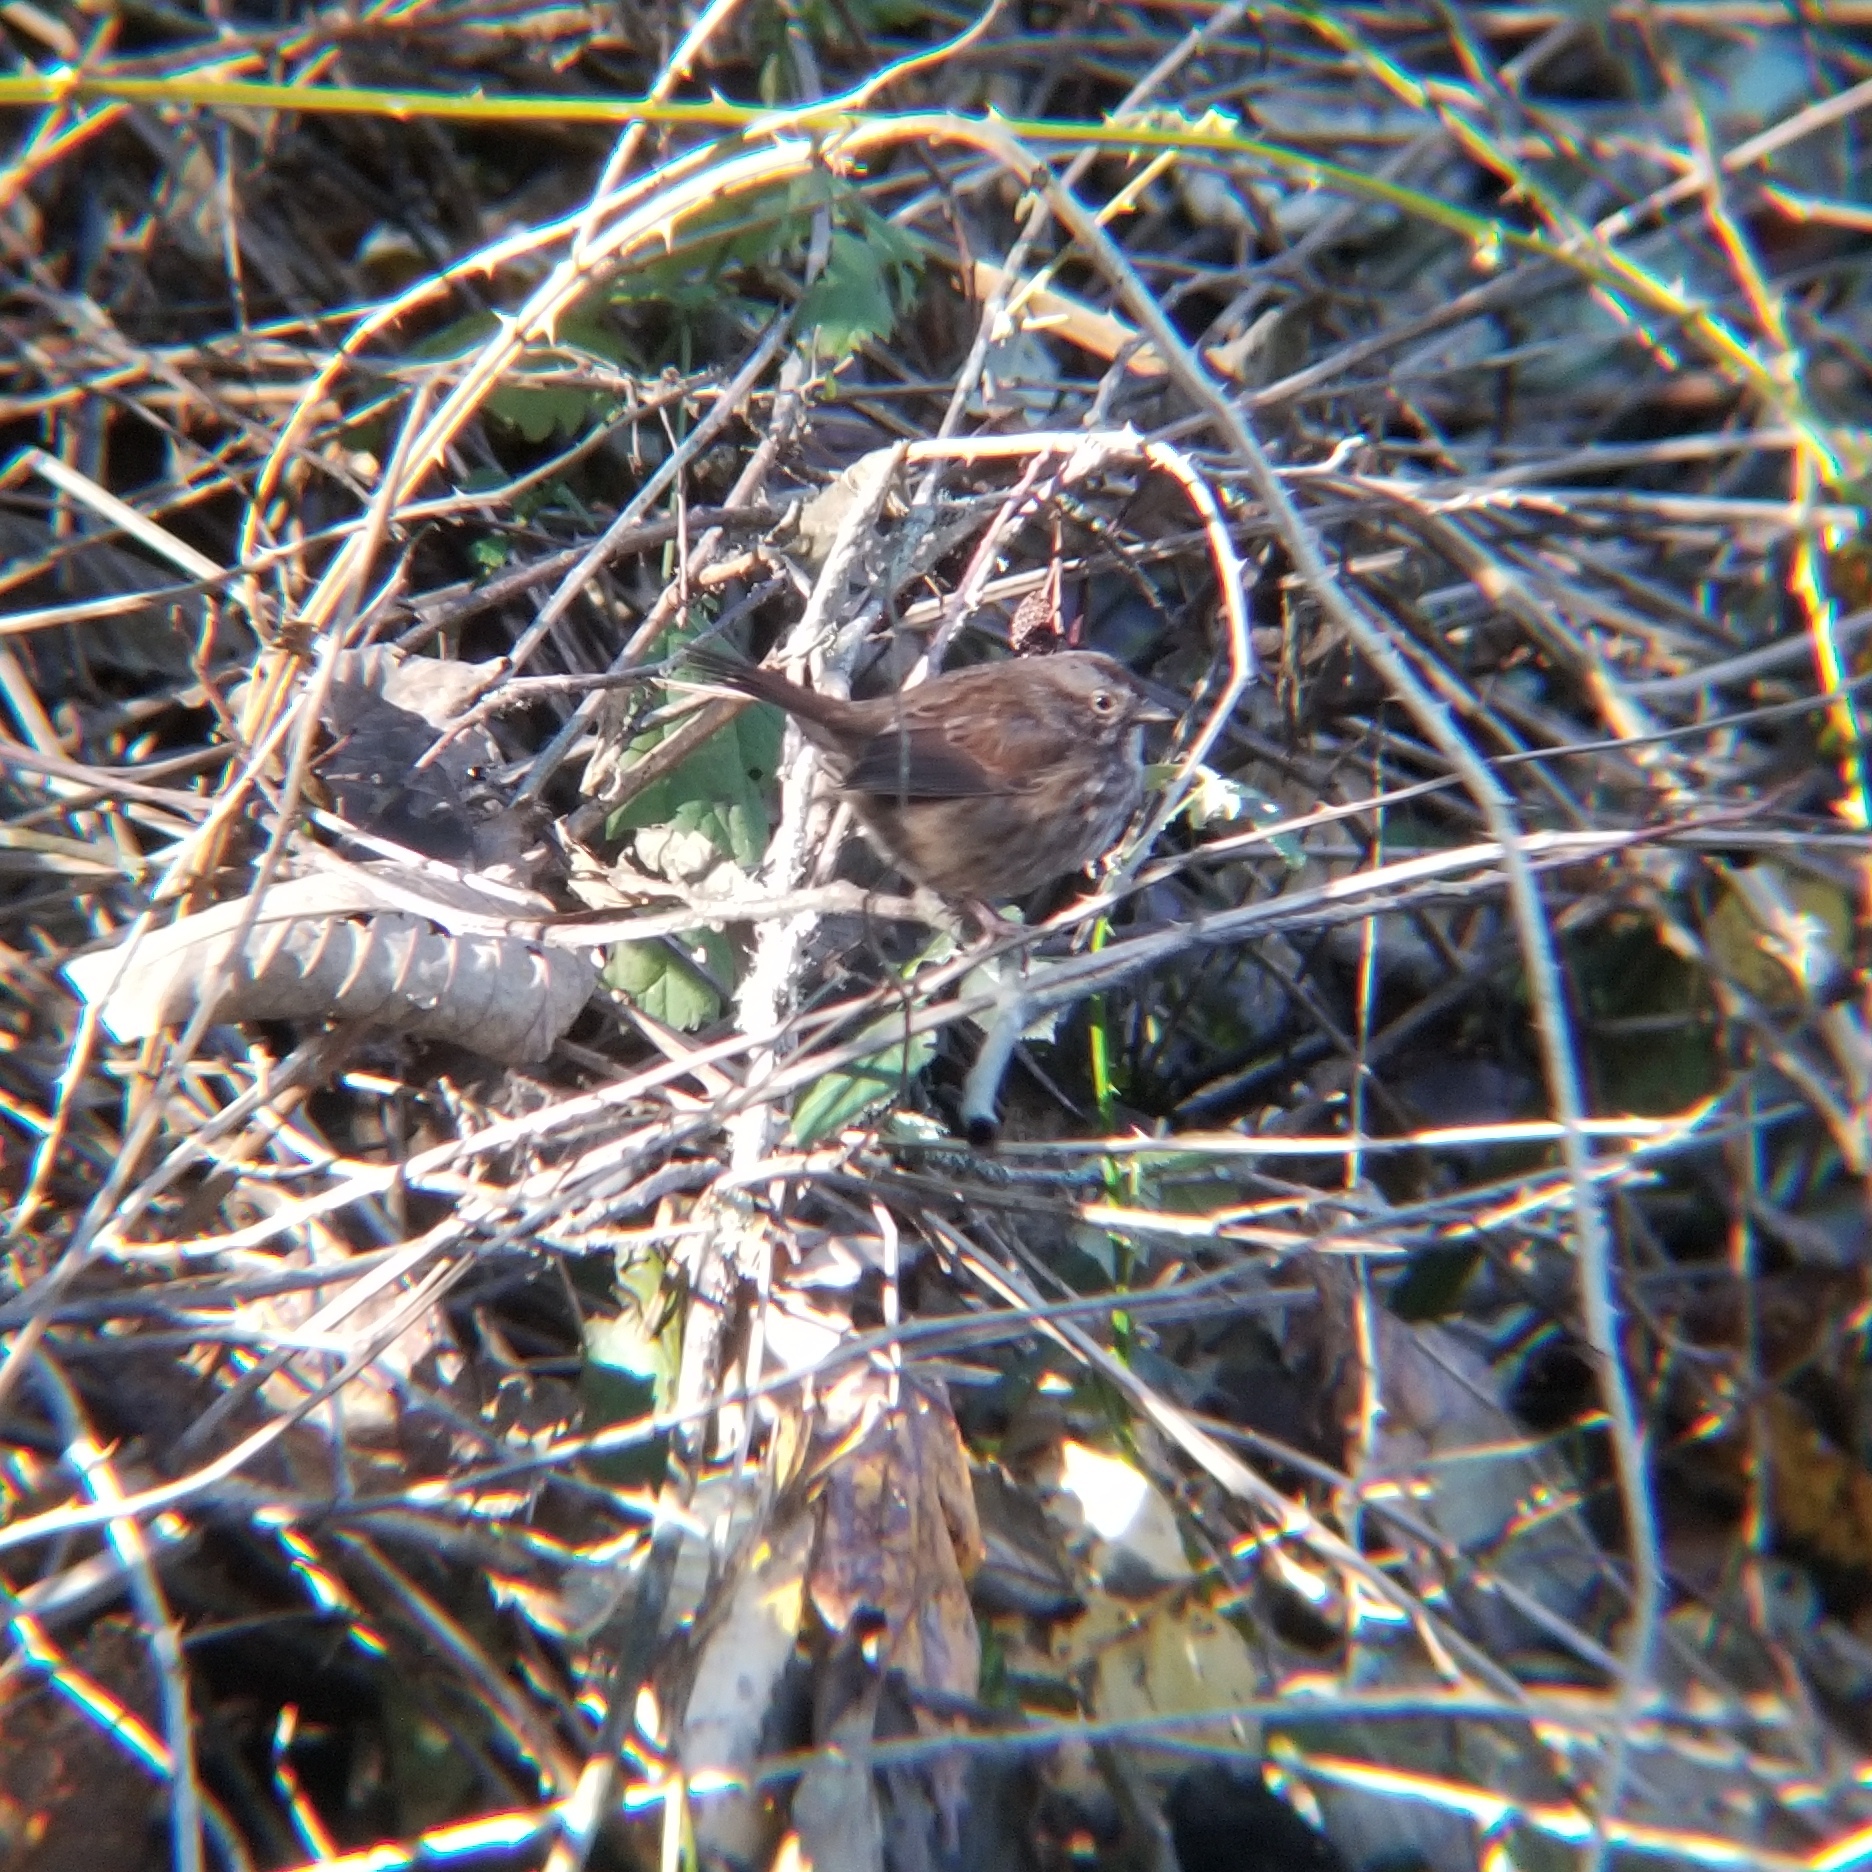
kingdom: Animalia
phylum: Chordata
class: Aves
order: Passeriformes
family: Passerellidae
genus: Melospiza
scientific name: Melospiza melodia
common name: Song sparrow
